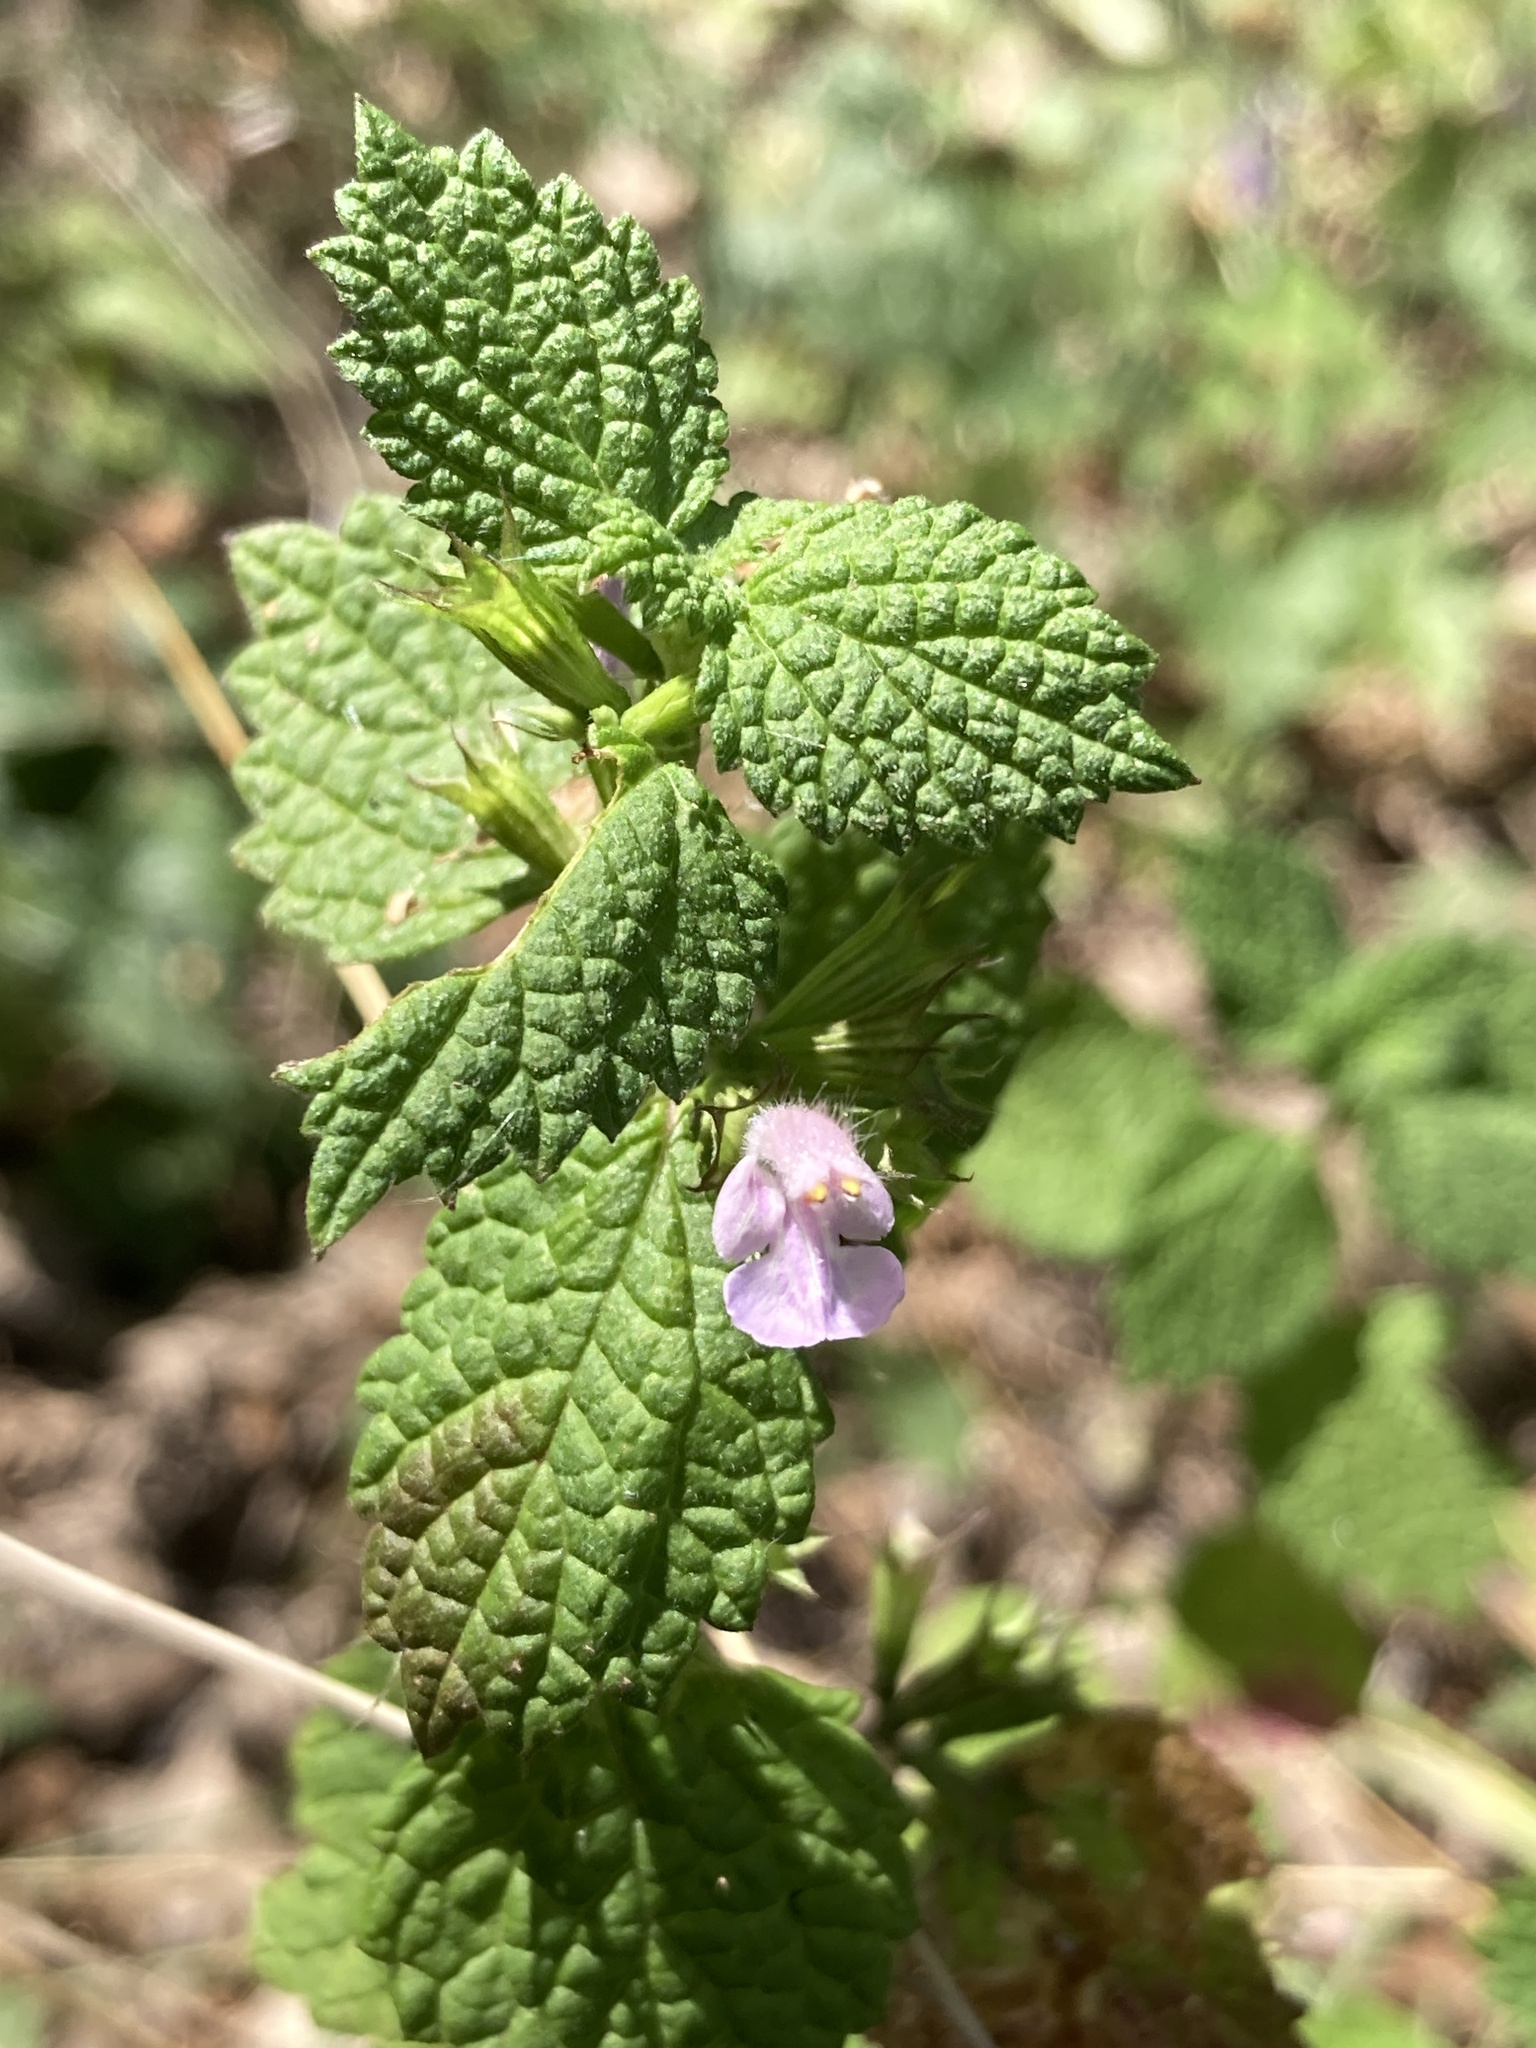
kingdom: Plantae
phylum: Tracheophyta
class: Magnoliopsida
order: Lamiales
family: Lamiaceae
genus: Ballota
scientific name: Ballota nigra
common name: Black horehound
